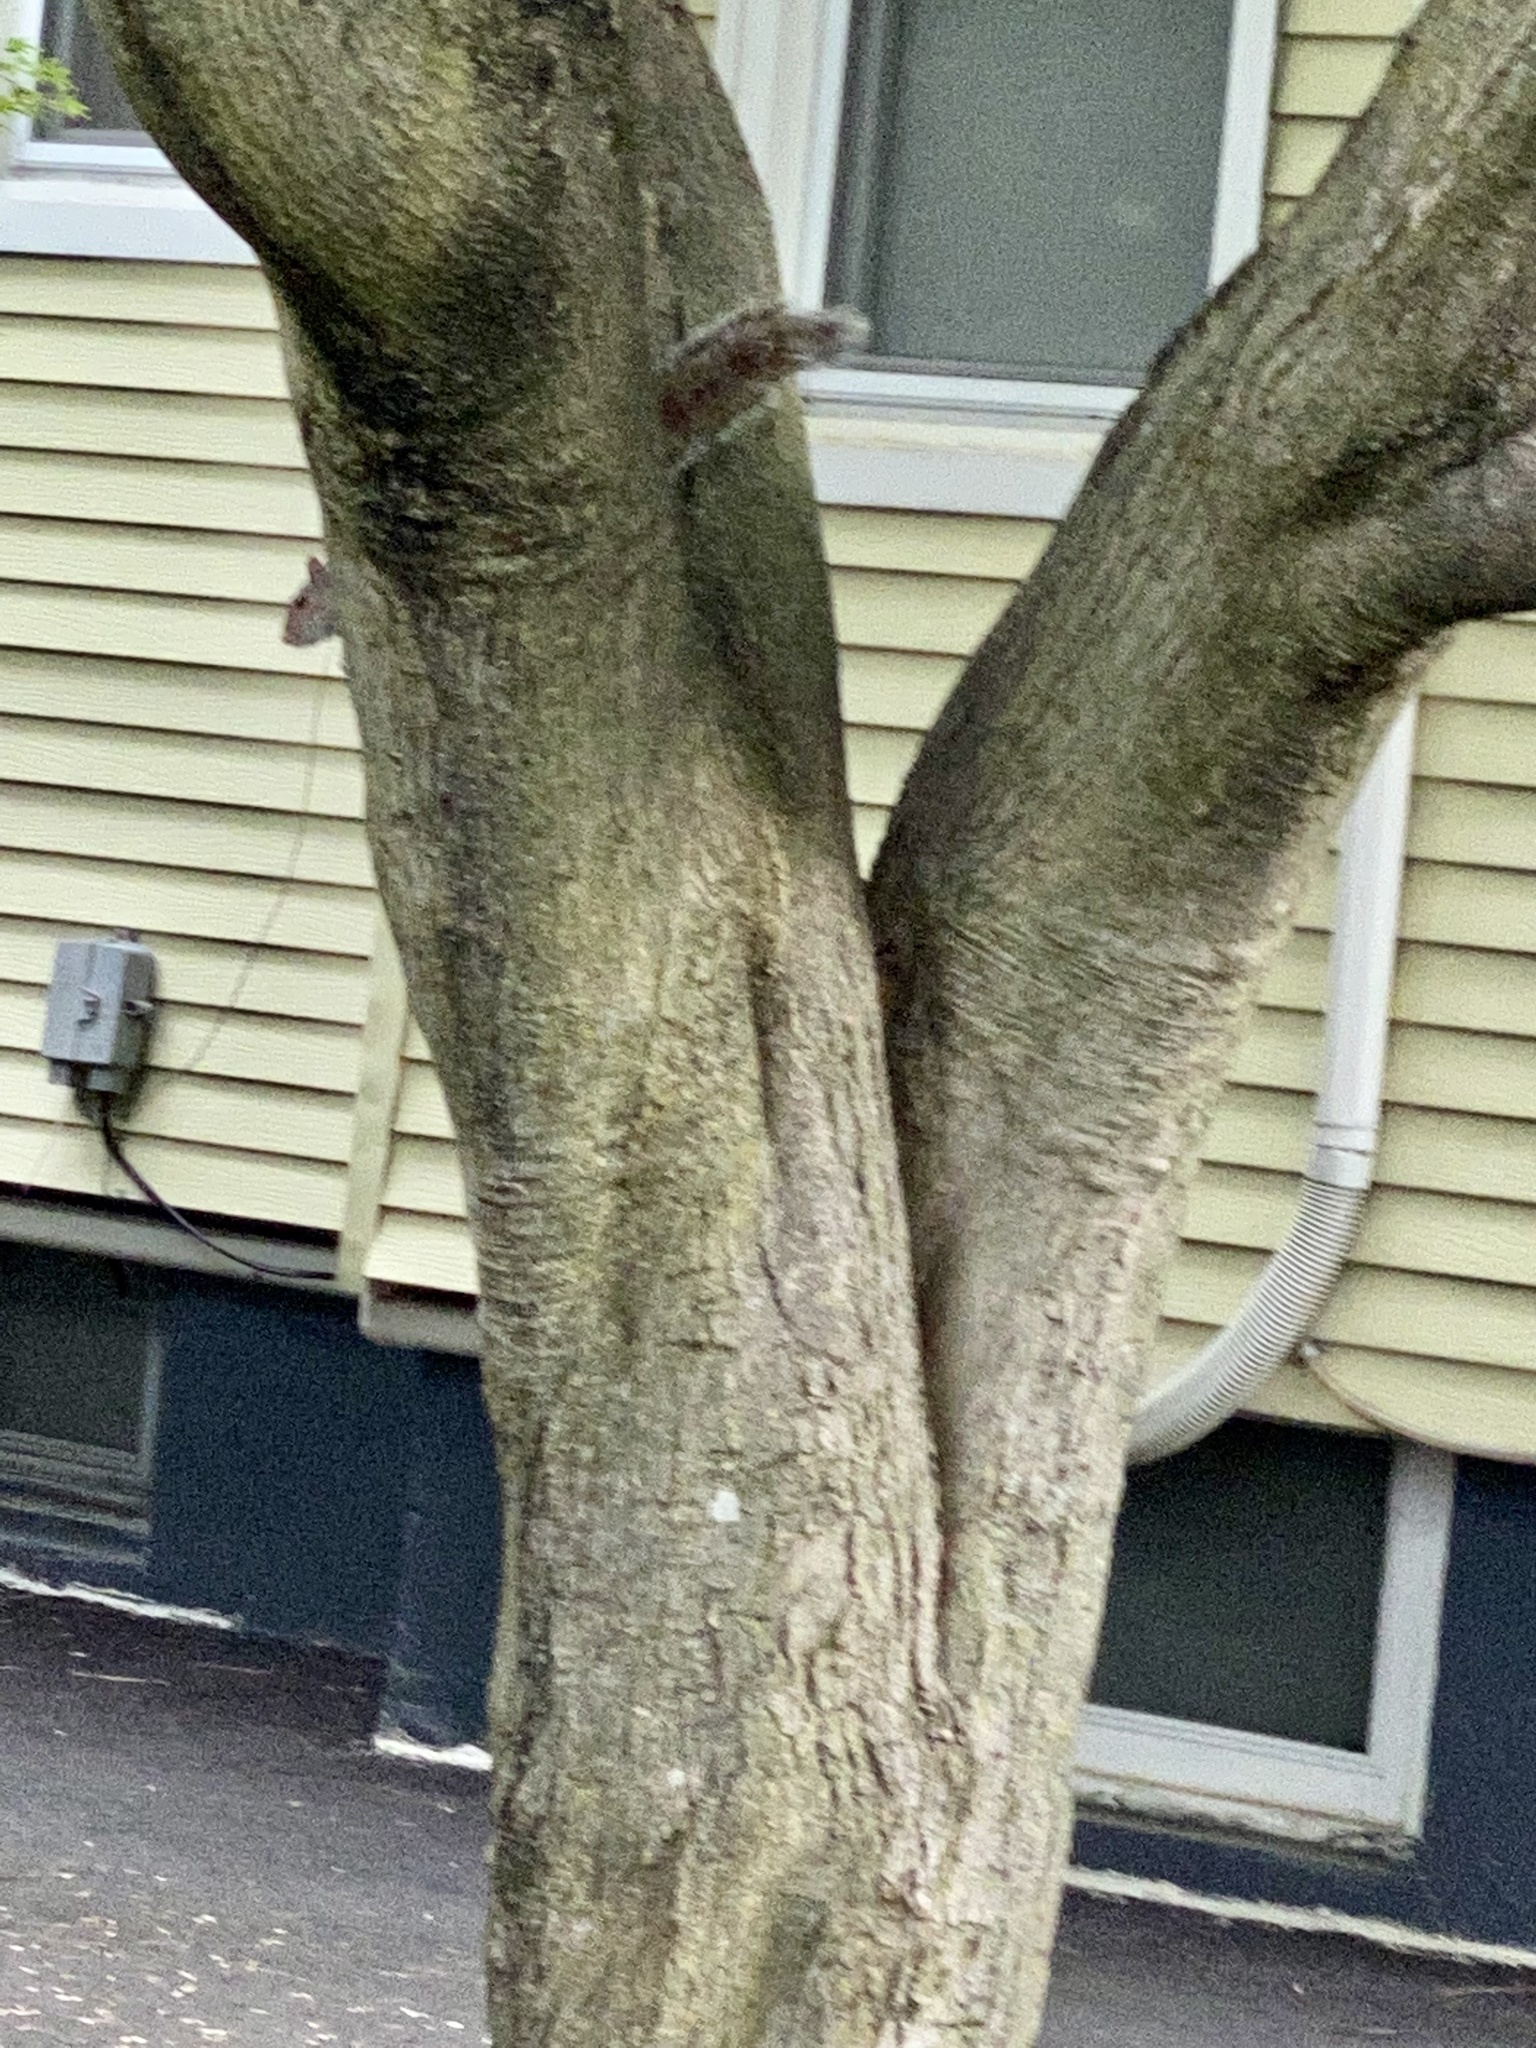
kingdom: Animalia
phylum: Chordata
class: Mammalia
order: Rodentia
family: Sciuridae
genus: Sciurus
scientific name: Sciurus carolinensis
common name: Eastern gray squirrel
